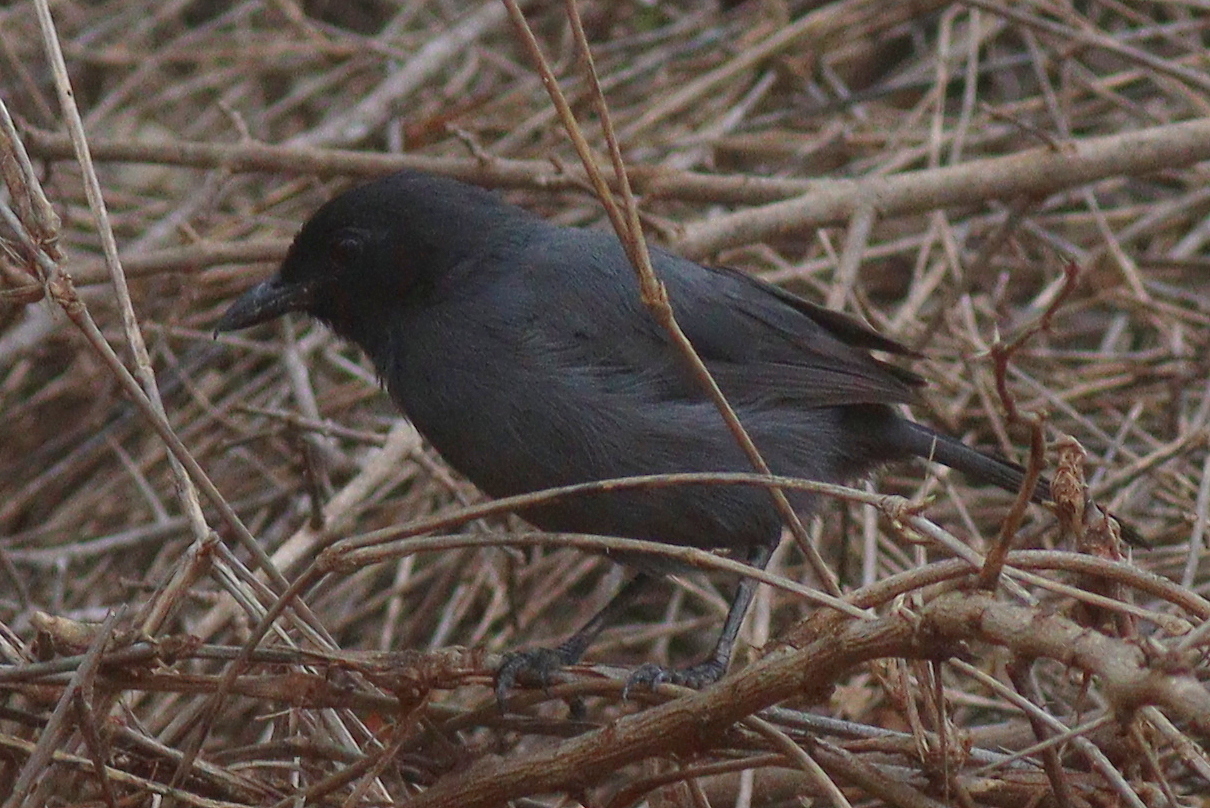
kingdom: Animalia
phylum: Chordata
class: Aves
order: Passeriformes
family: Malaconotidae
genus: Laniarius
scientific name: Laniarius funebris
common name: Slate-colored boubou
